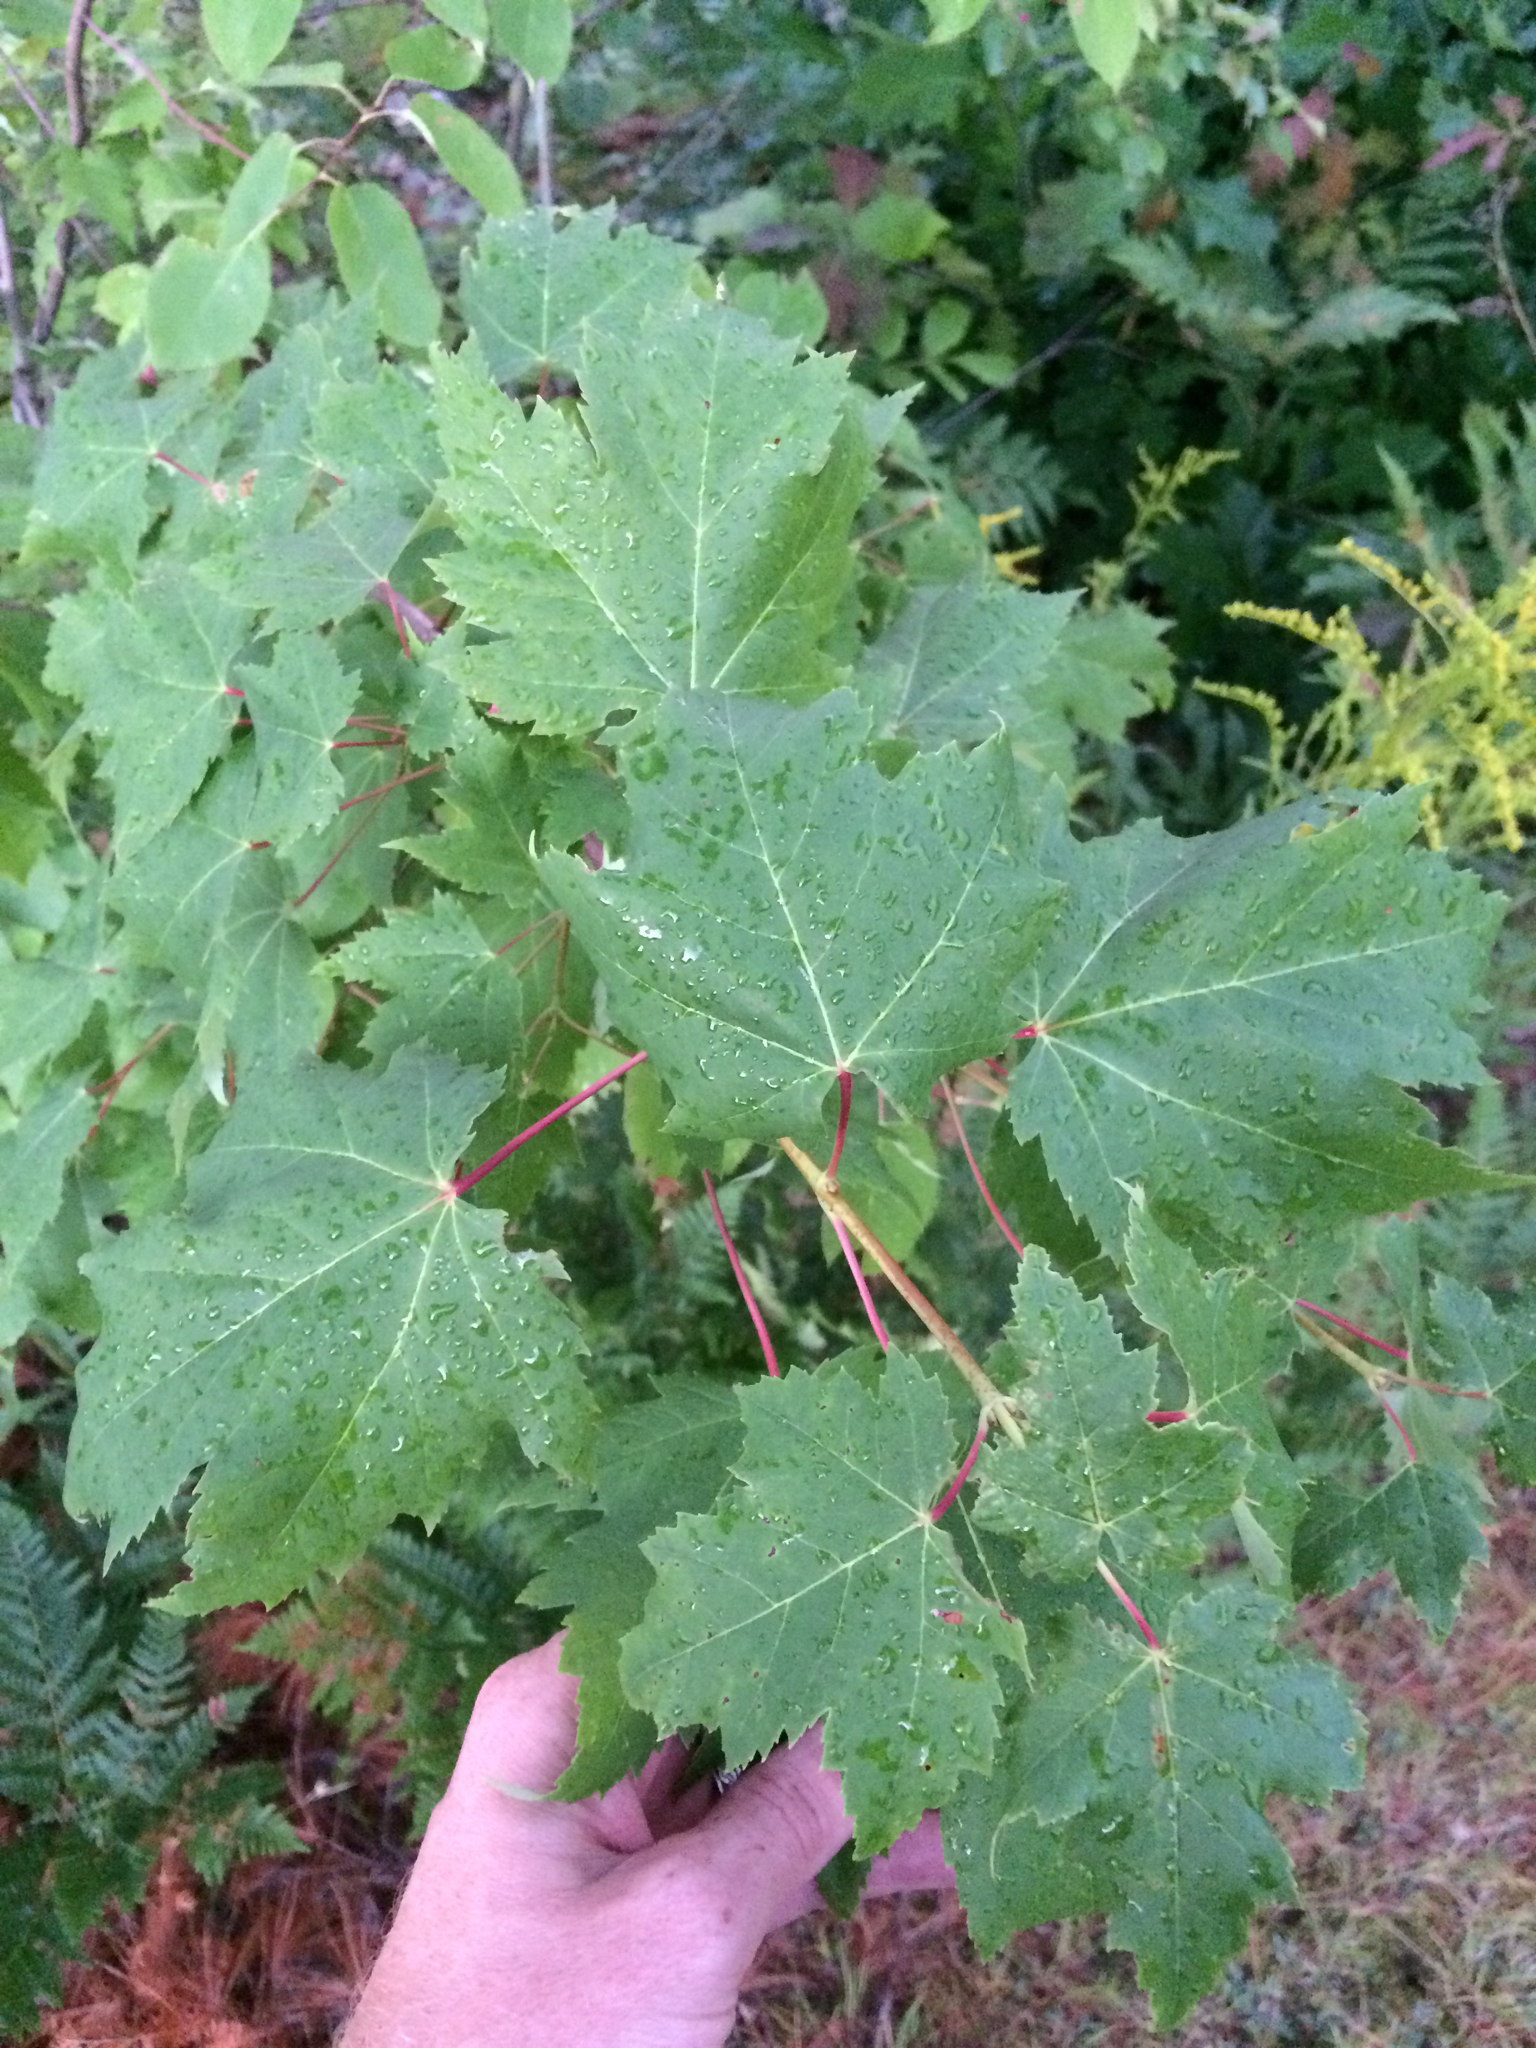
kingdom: Plantae
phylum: Tracheophyta
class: Magnoliopsida
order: Sapindales
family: Sapindaceae
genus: Acer
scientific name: Acer rubrum
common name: Red maple
